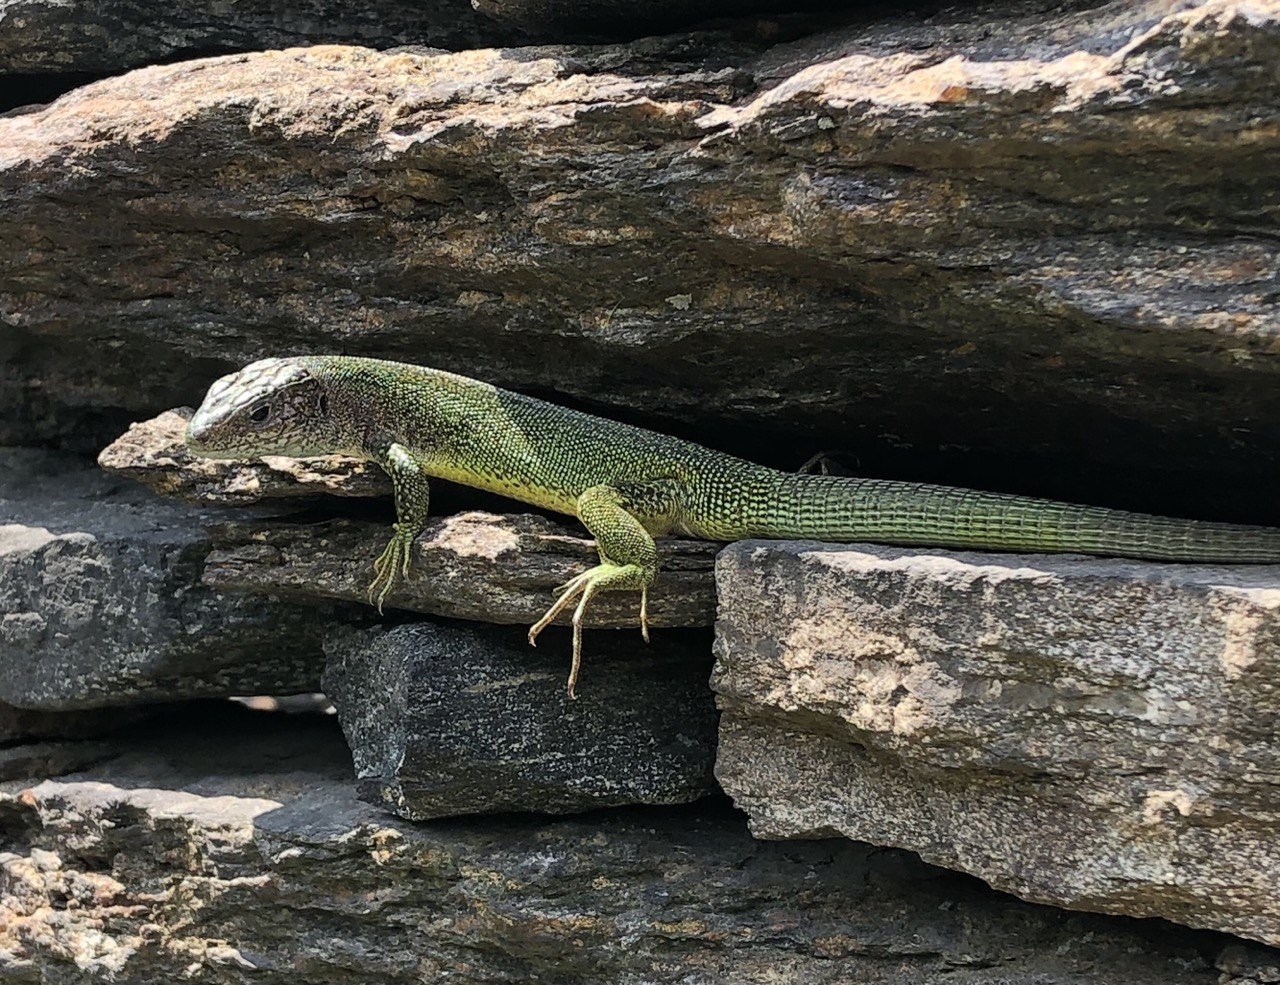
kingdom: Animalia
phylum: Chordata
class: Squamata
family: Lacertidae
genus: Lacerta
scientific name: Lacerta bilineata
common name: Western green lizard
